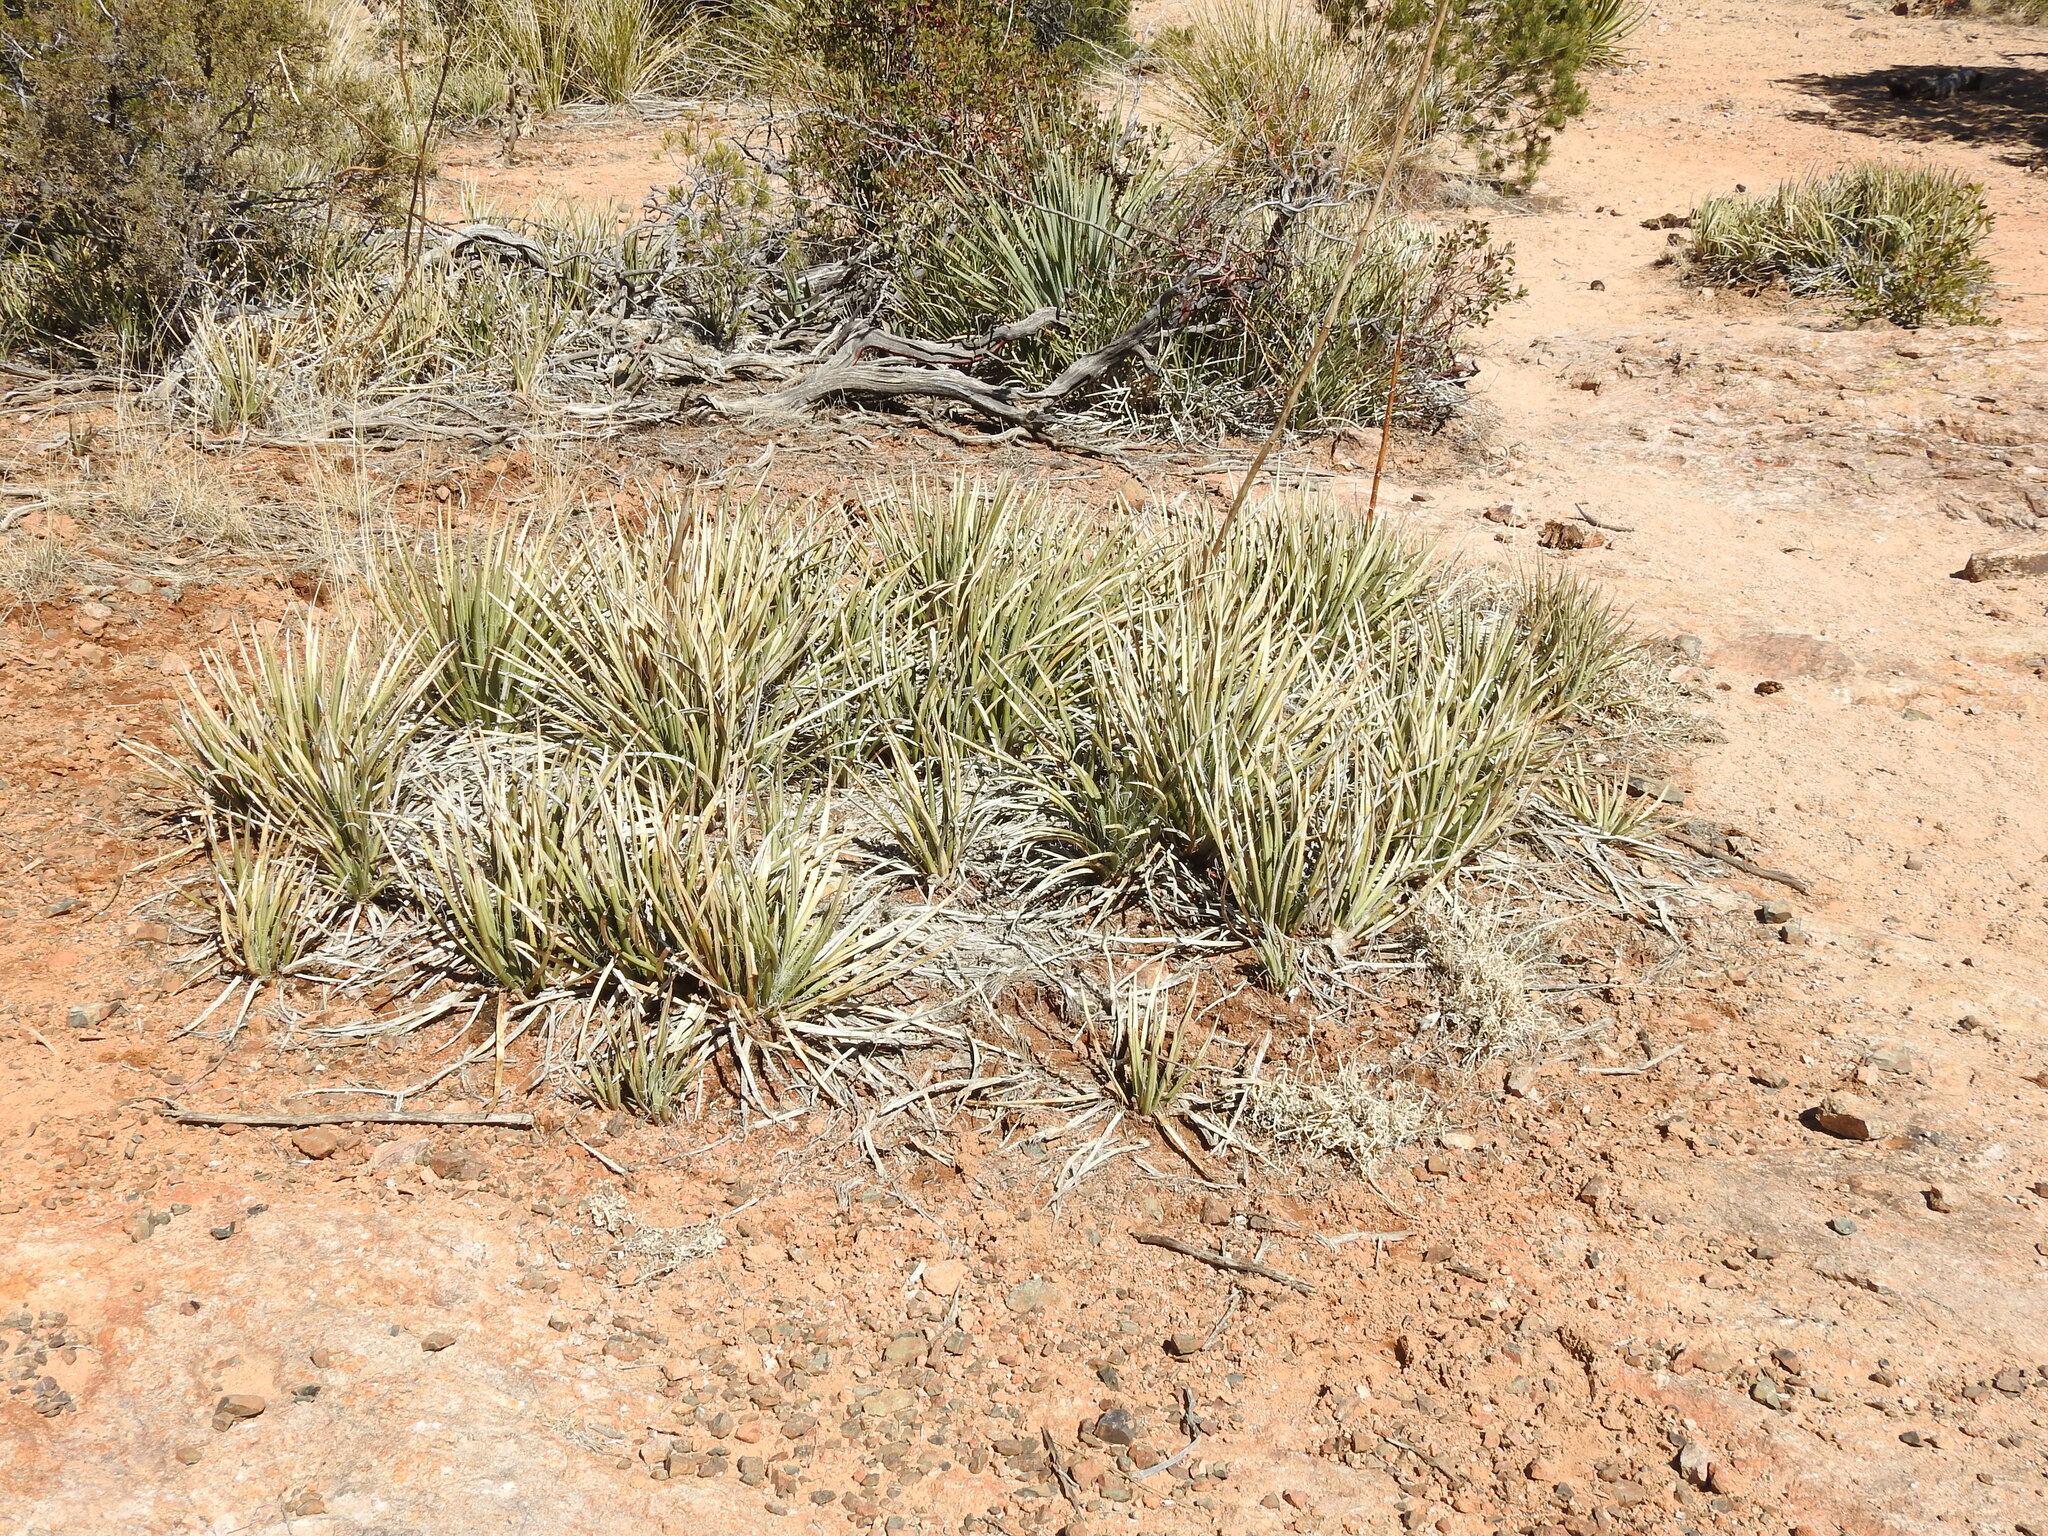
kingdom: Plantae
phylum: Tracheophyta
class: Liliopsida
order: Asparagales
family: Asparagaceae
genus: Agave
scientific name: Agave schottii
